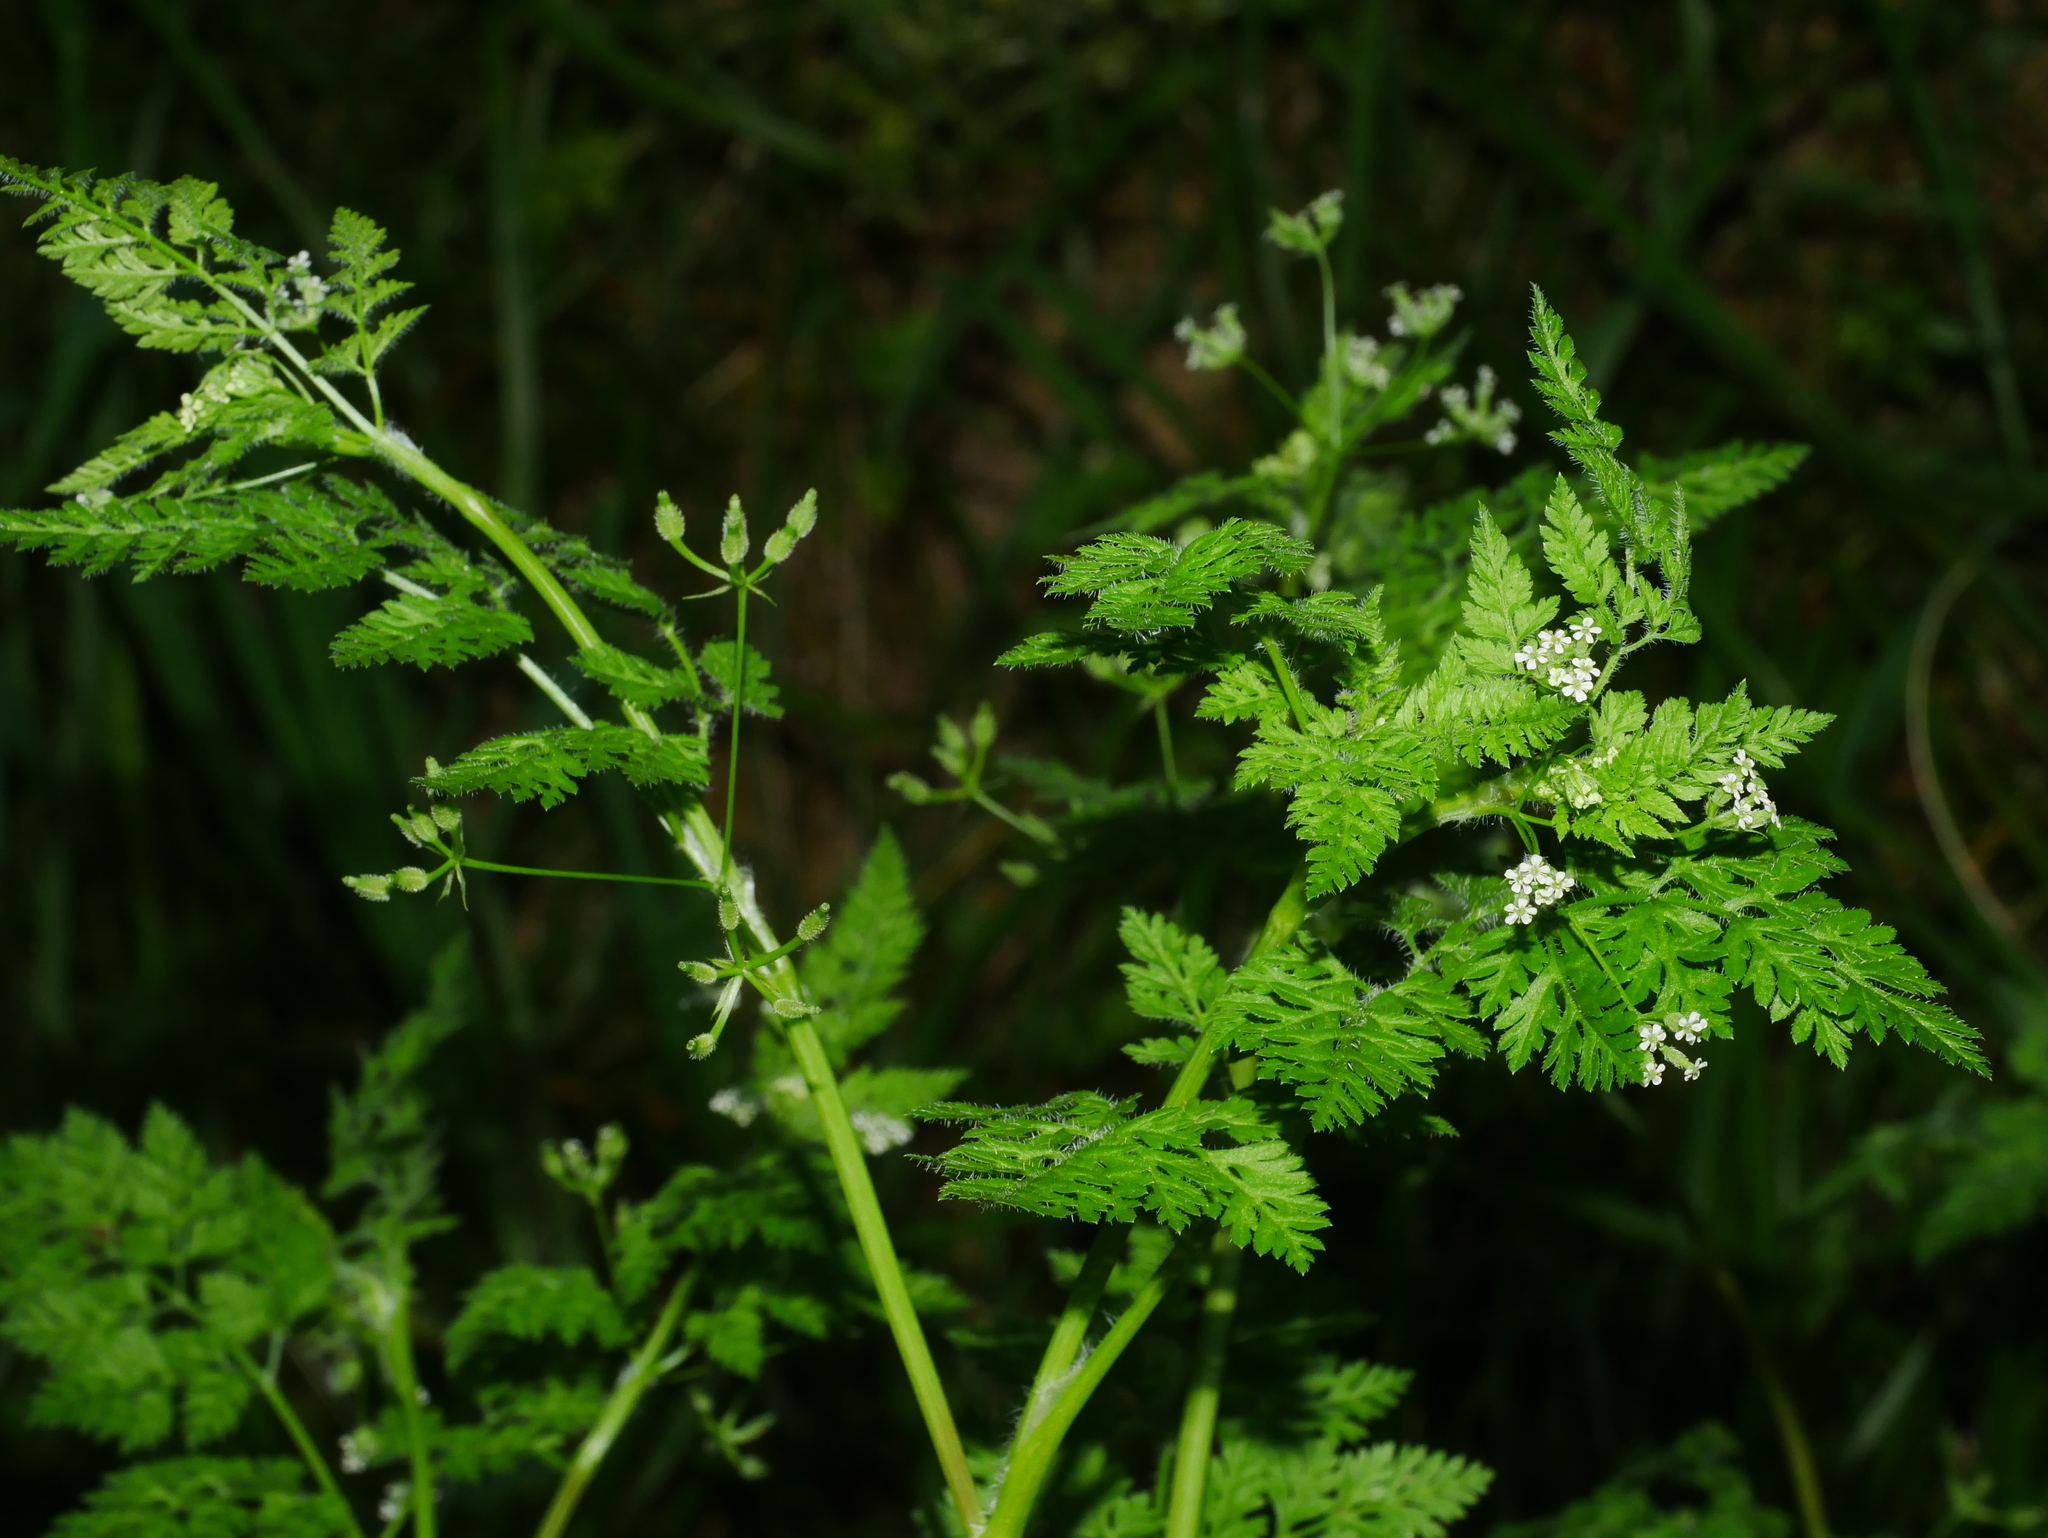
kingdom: Plantae
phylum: Tracheophyta
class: Magnoliopsida
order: Apiales
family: Apiaceae
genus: Anthriscus
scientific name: Anthriscus caucalis
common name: Bur chervil
